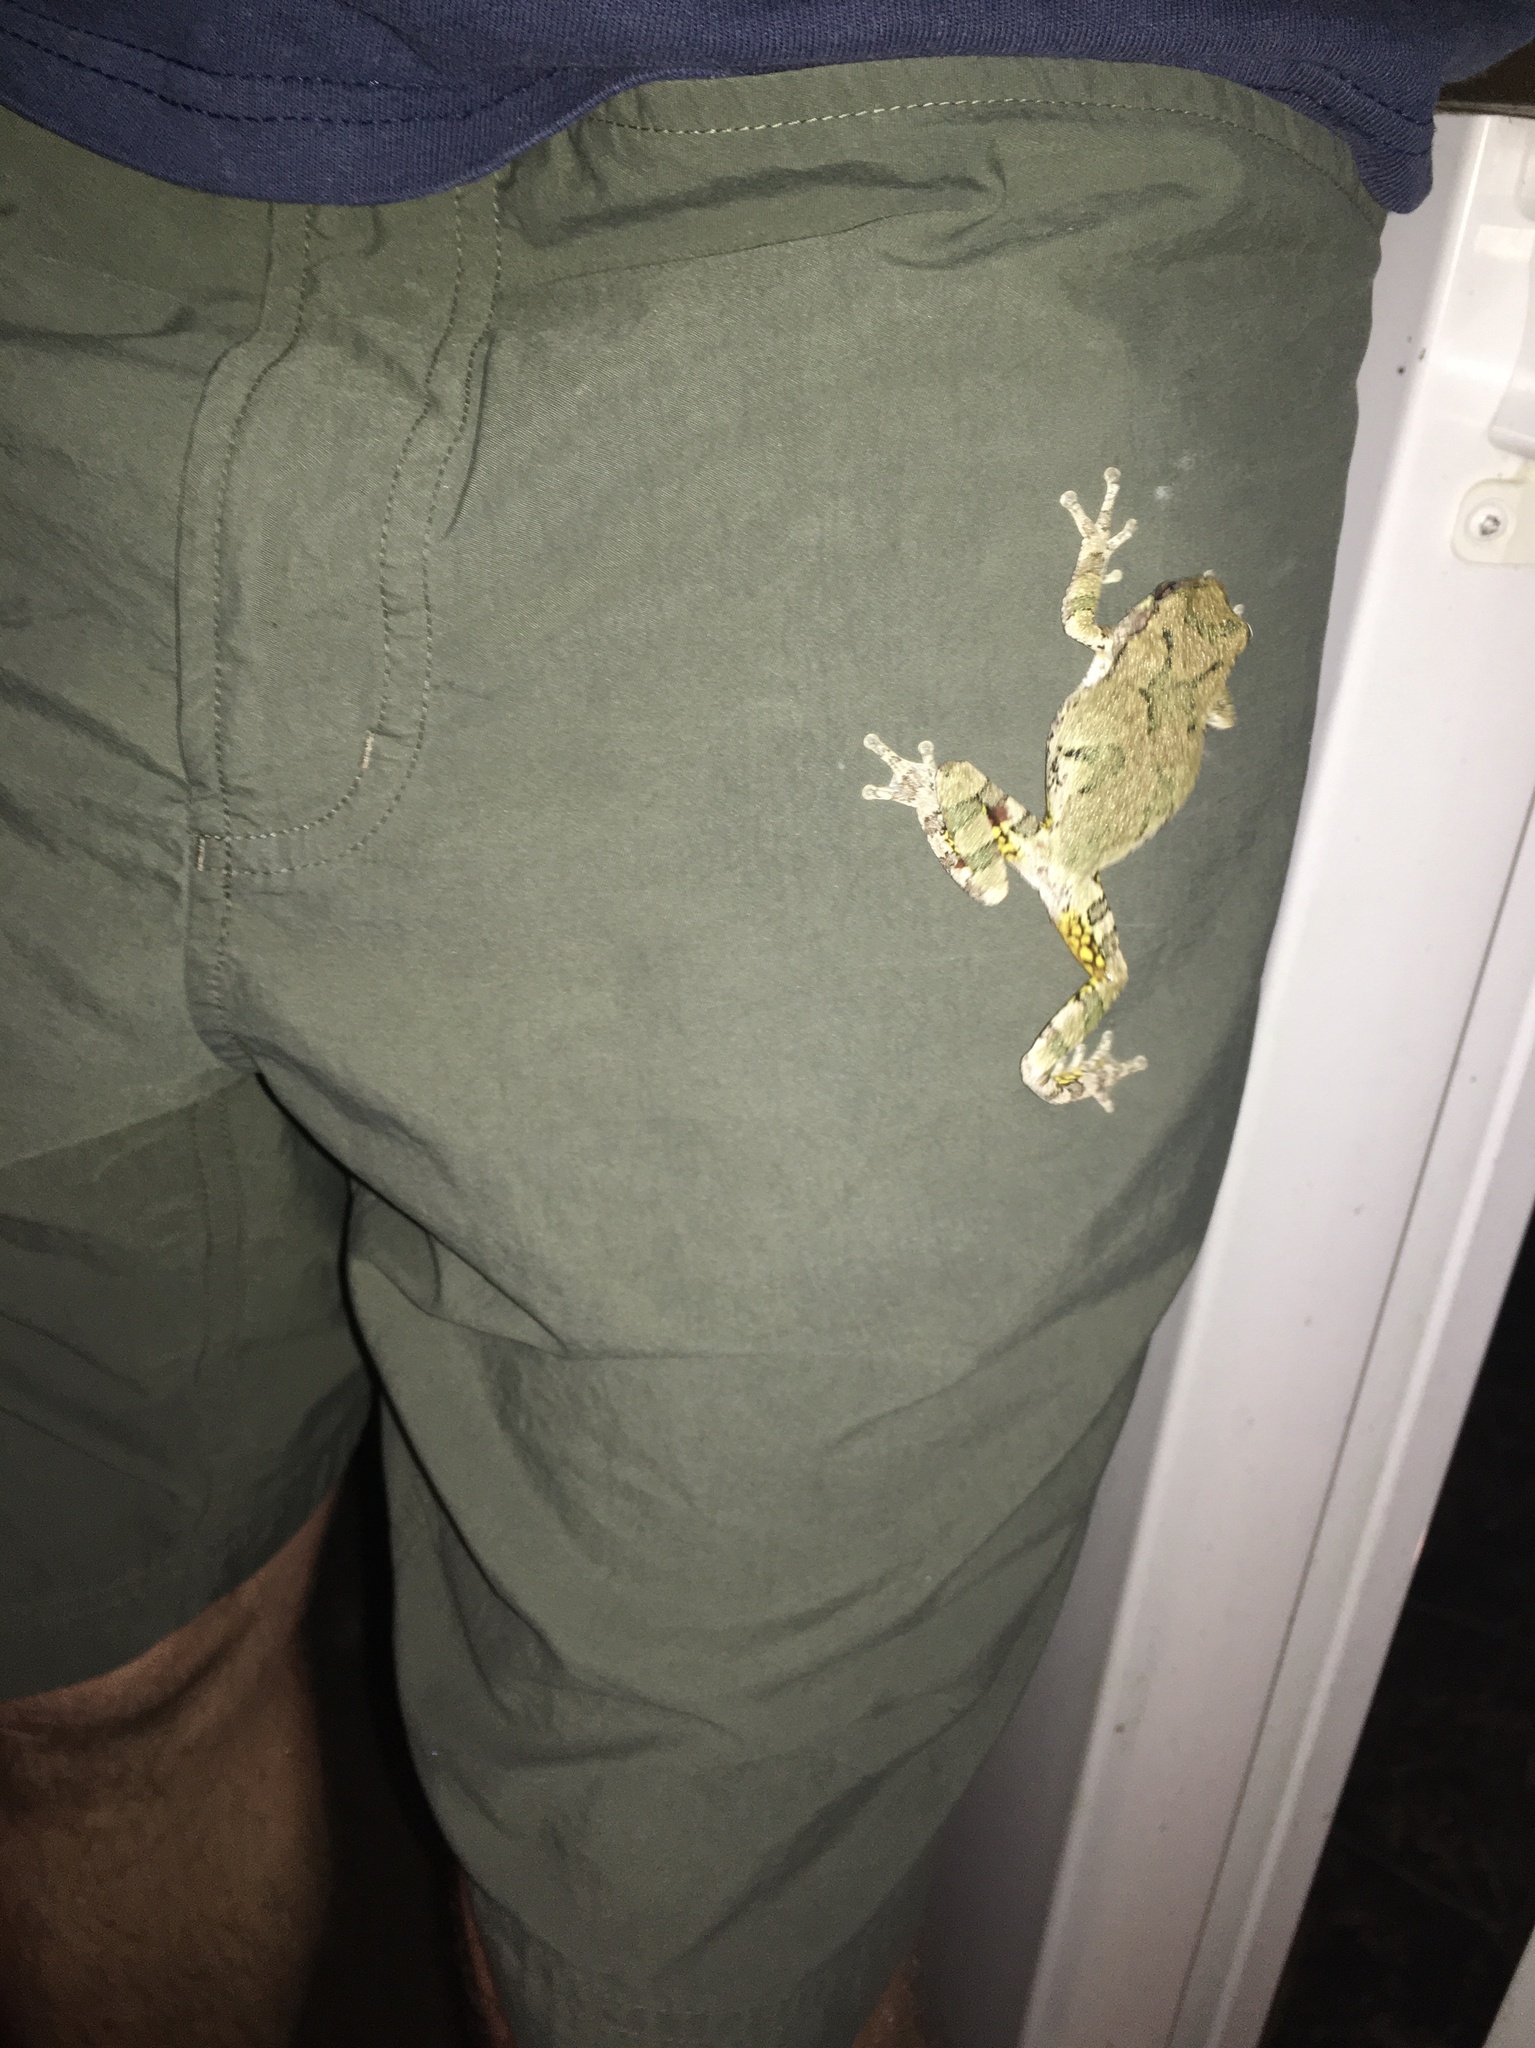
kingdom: Animalia
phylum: Chordata
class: Amphibia
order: Anura
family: Hylidae
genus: Dryophytes
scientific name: Dryophytes versicolor
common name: Gray treefrog
